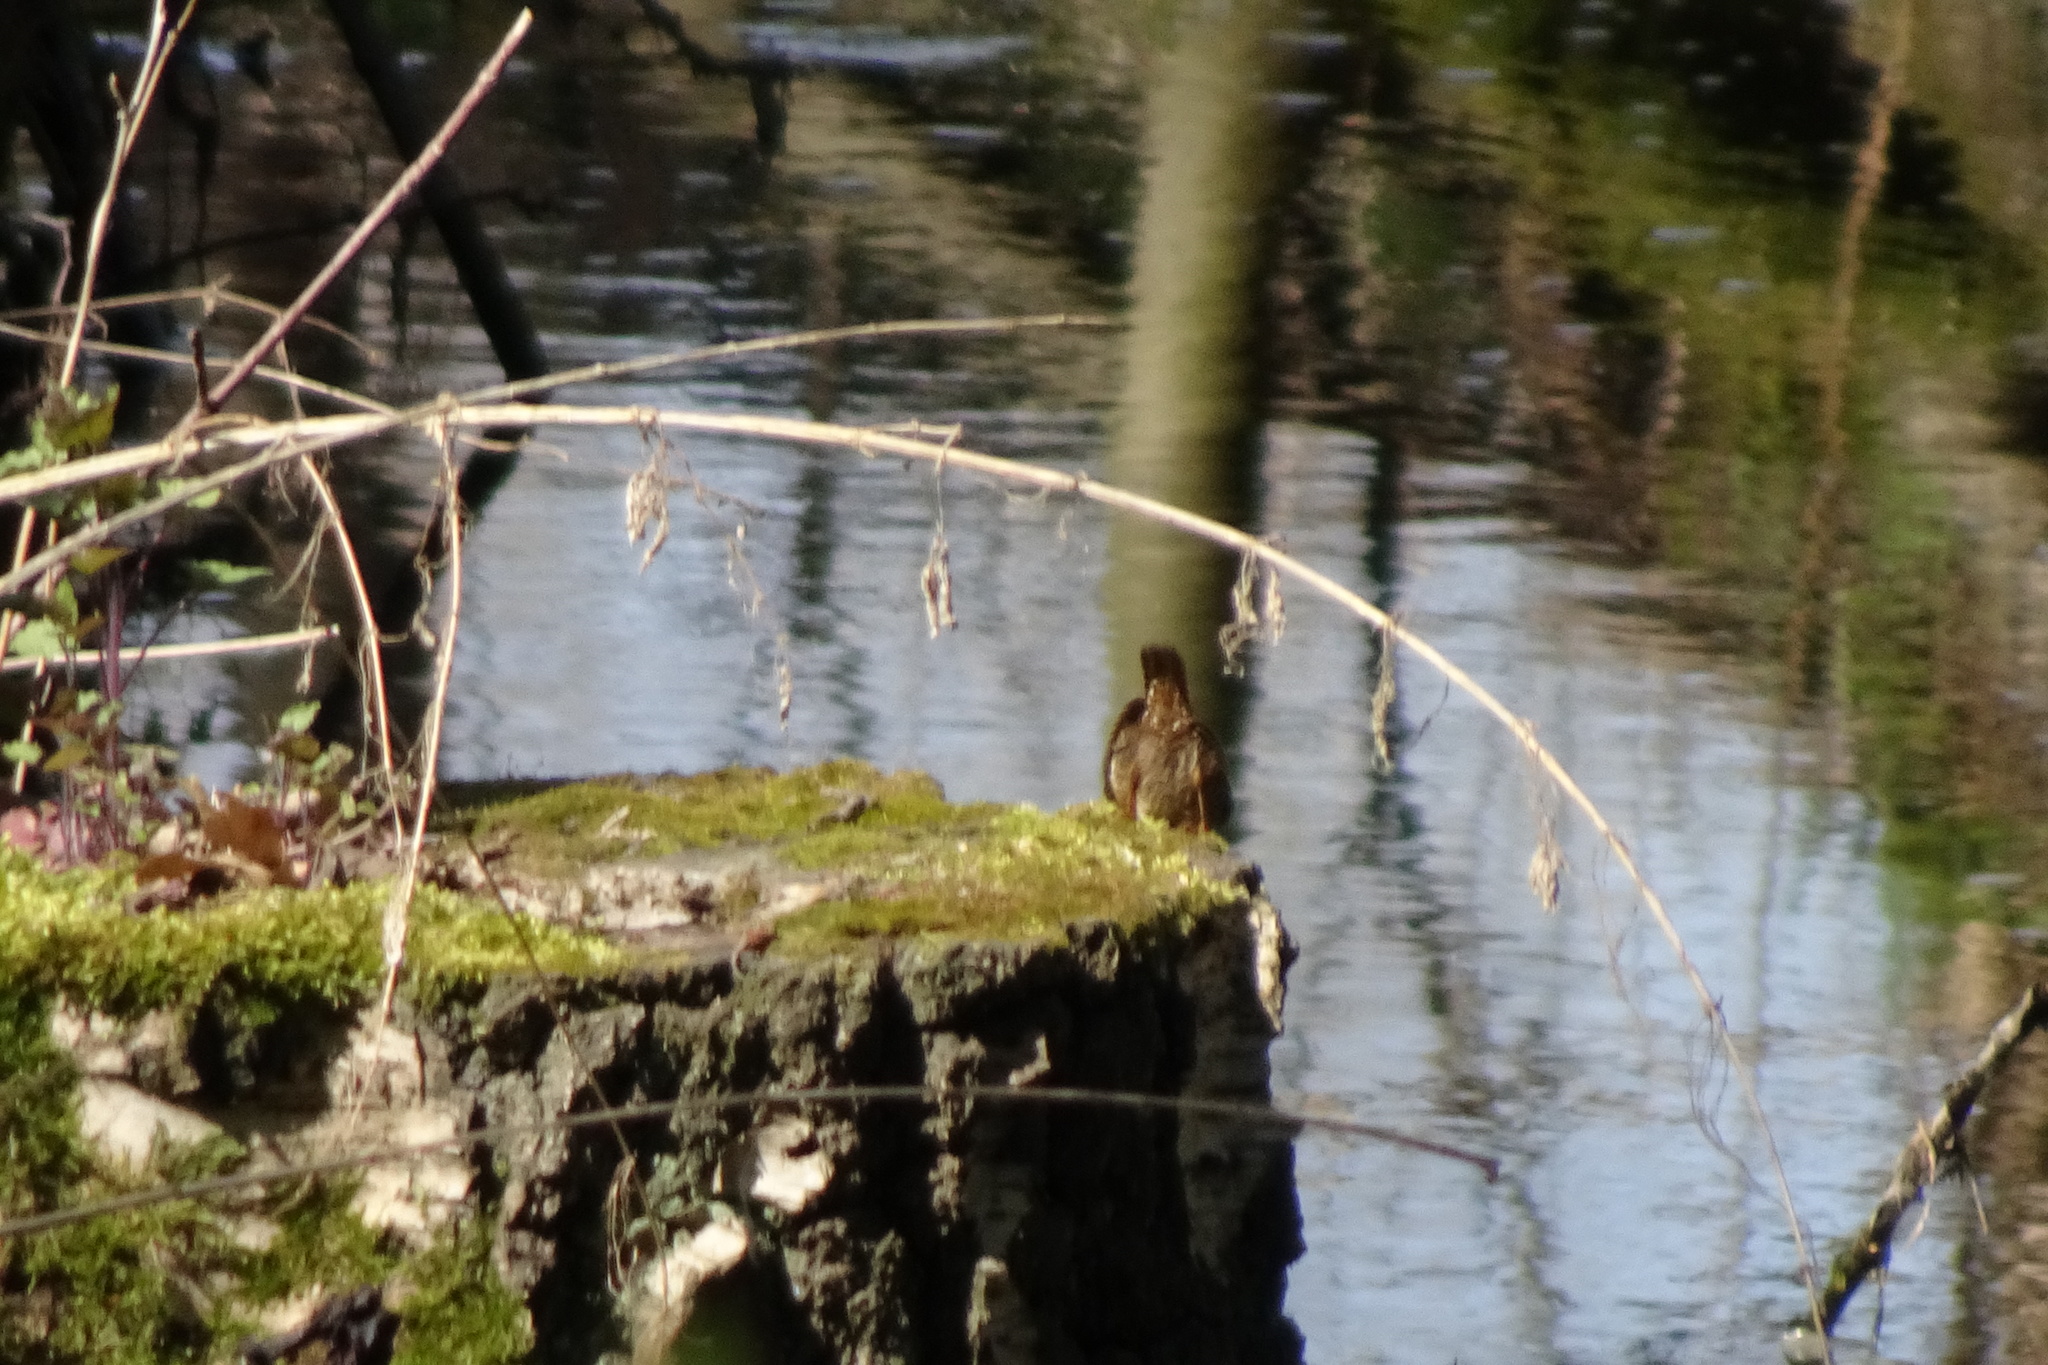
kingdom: Animalia
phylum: Chordata
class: Aves
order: Passeriformes
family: Troglodytidae
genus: Troglodytes
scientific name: Troglodytes troglodytes
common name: Eurasian wren
